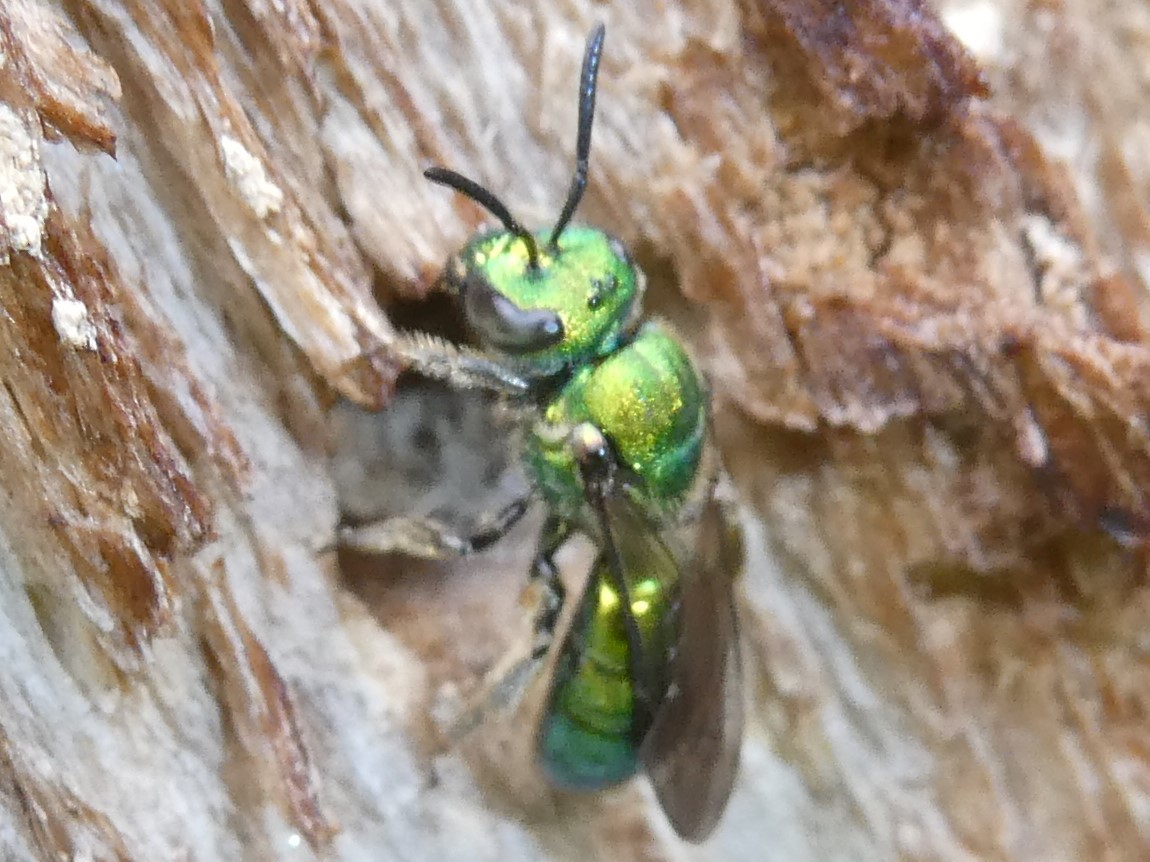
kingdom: Animalia
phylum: Arthropoda
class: Insecta
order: Hymenoptera
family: Halictidae
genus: Augochlora
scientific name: Augochlora pura
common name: Pure green sweat bee
